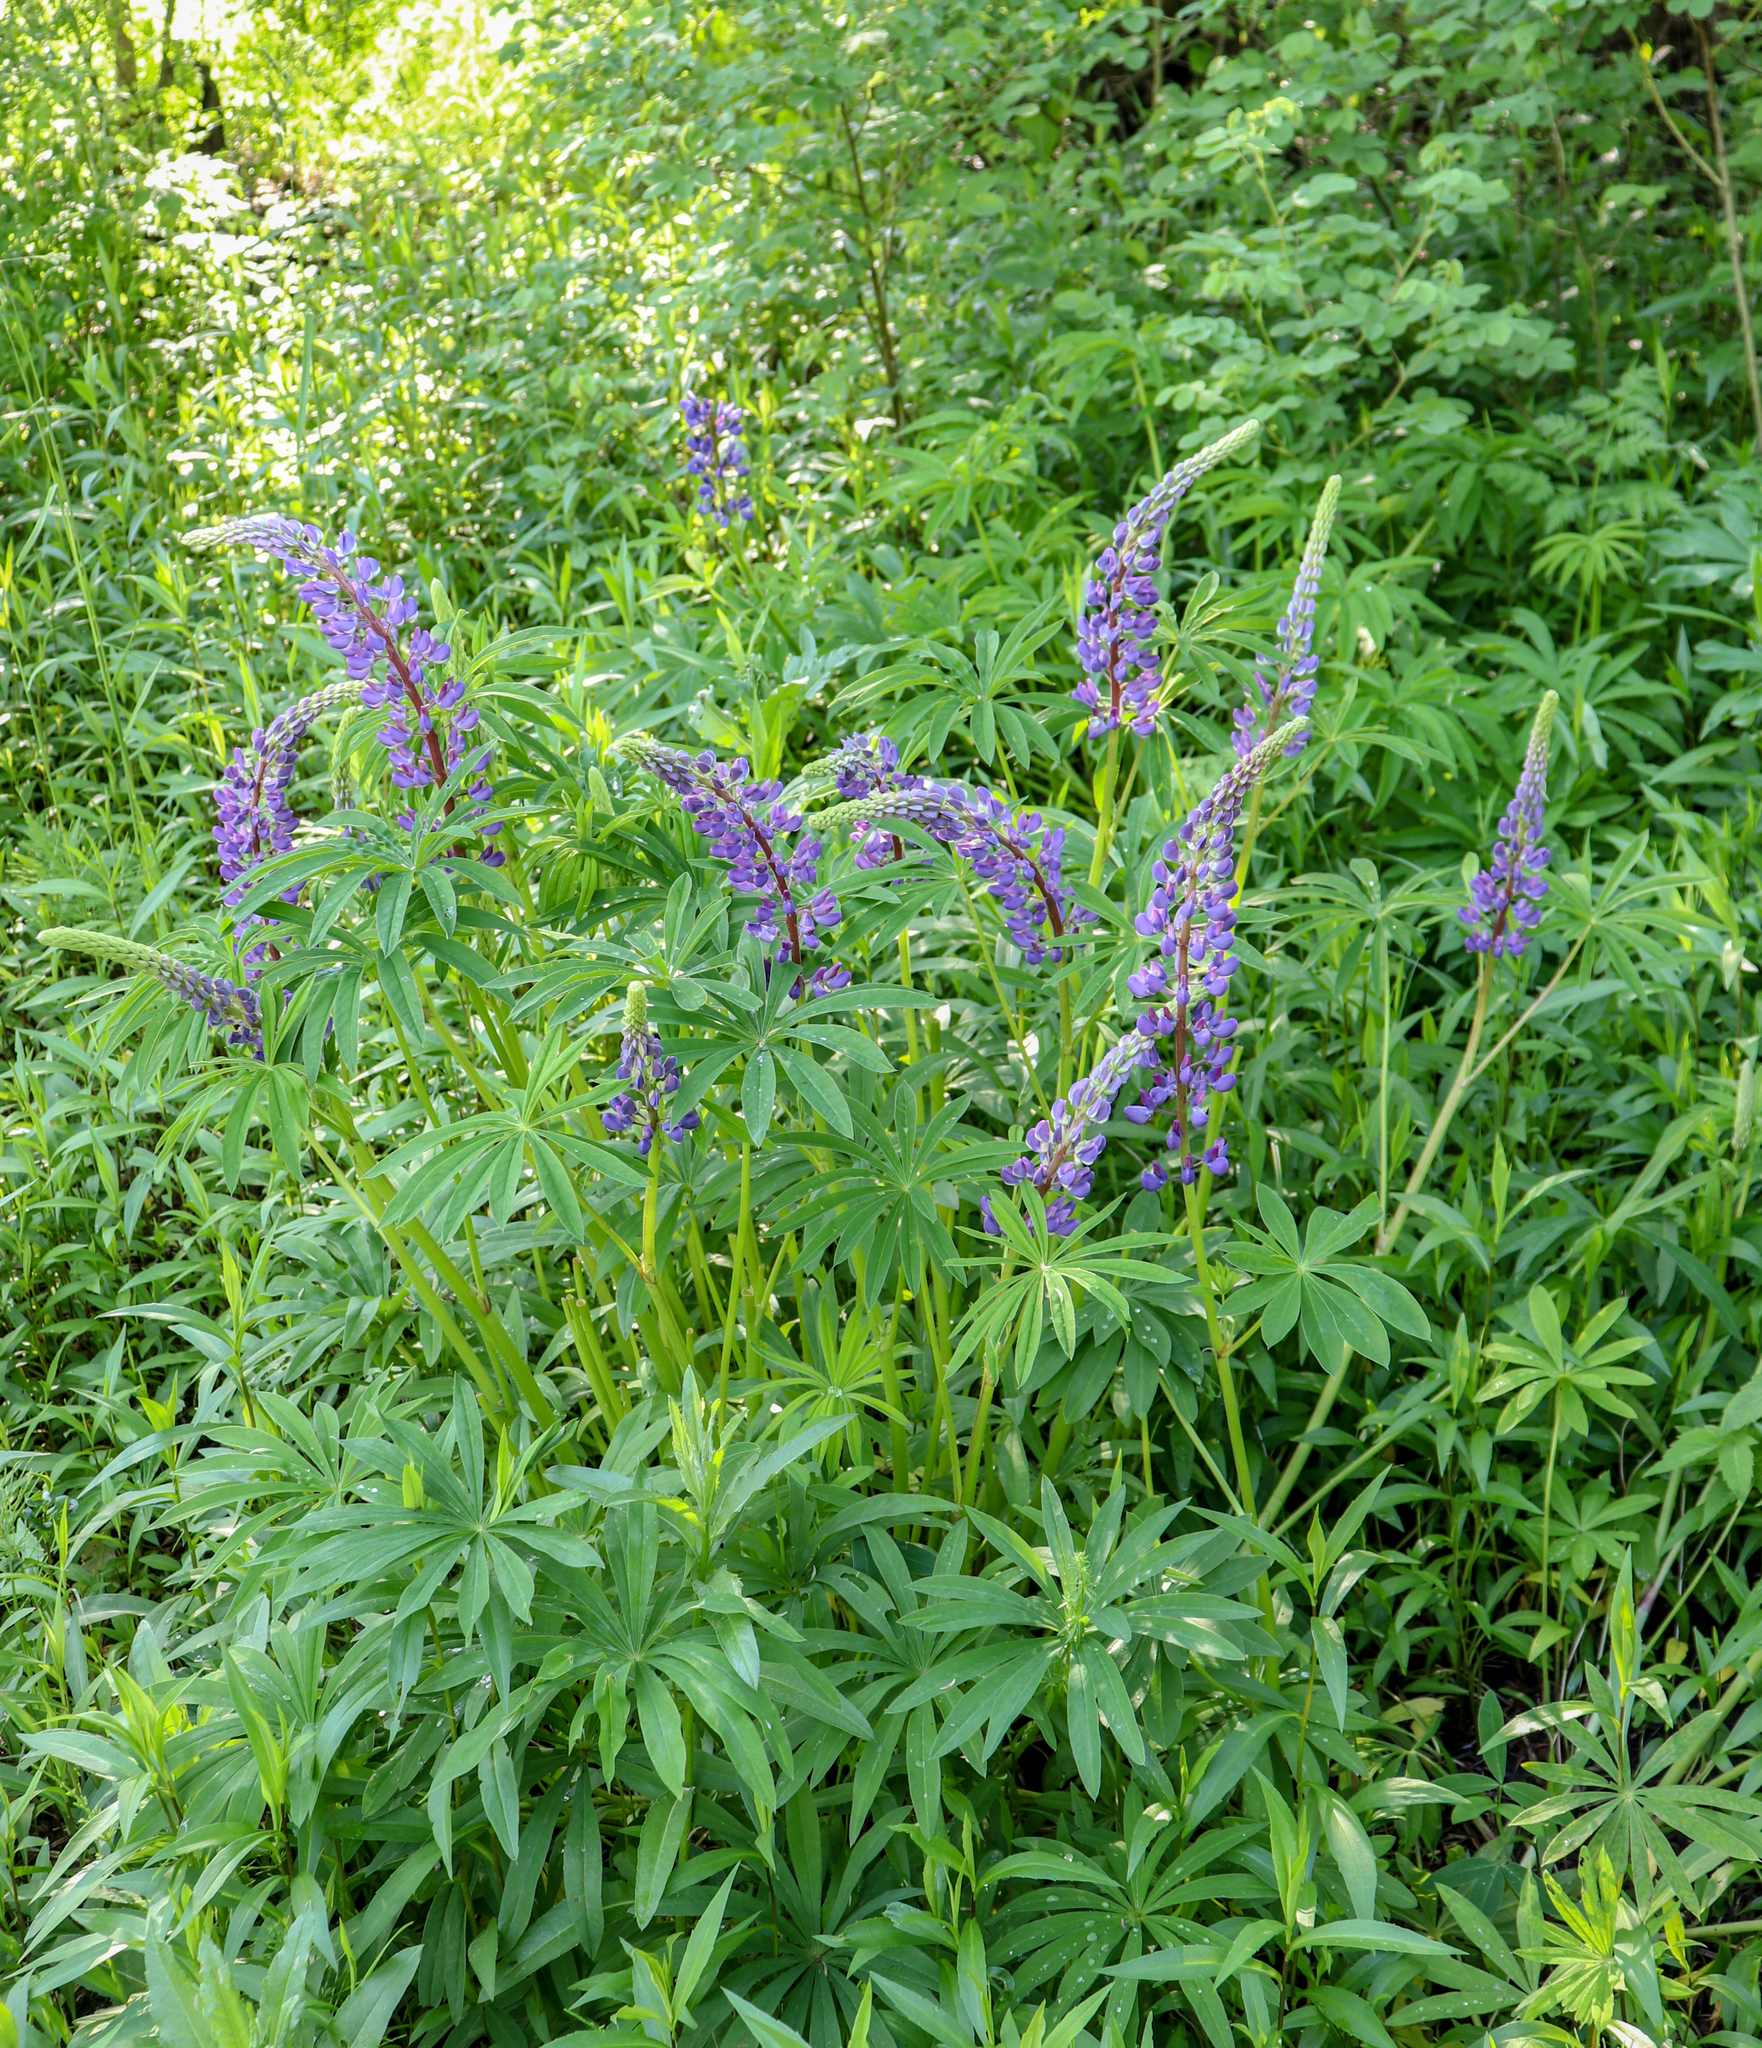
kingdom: Plantae
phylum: Tracheophyta
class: Magnoliopsida
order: Fabales
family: Fabaceae
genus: Lupinus
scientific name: Lupinus polyphyllus
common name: Garden lupin
